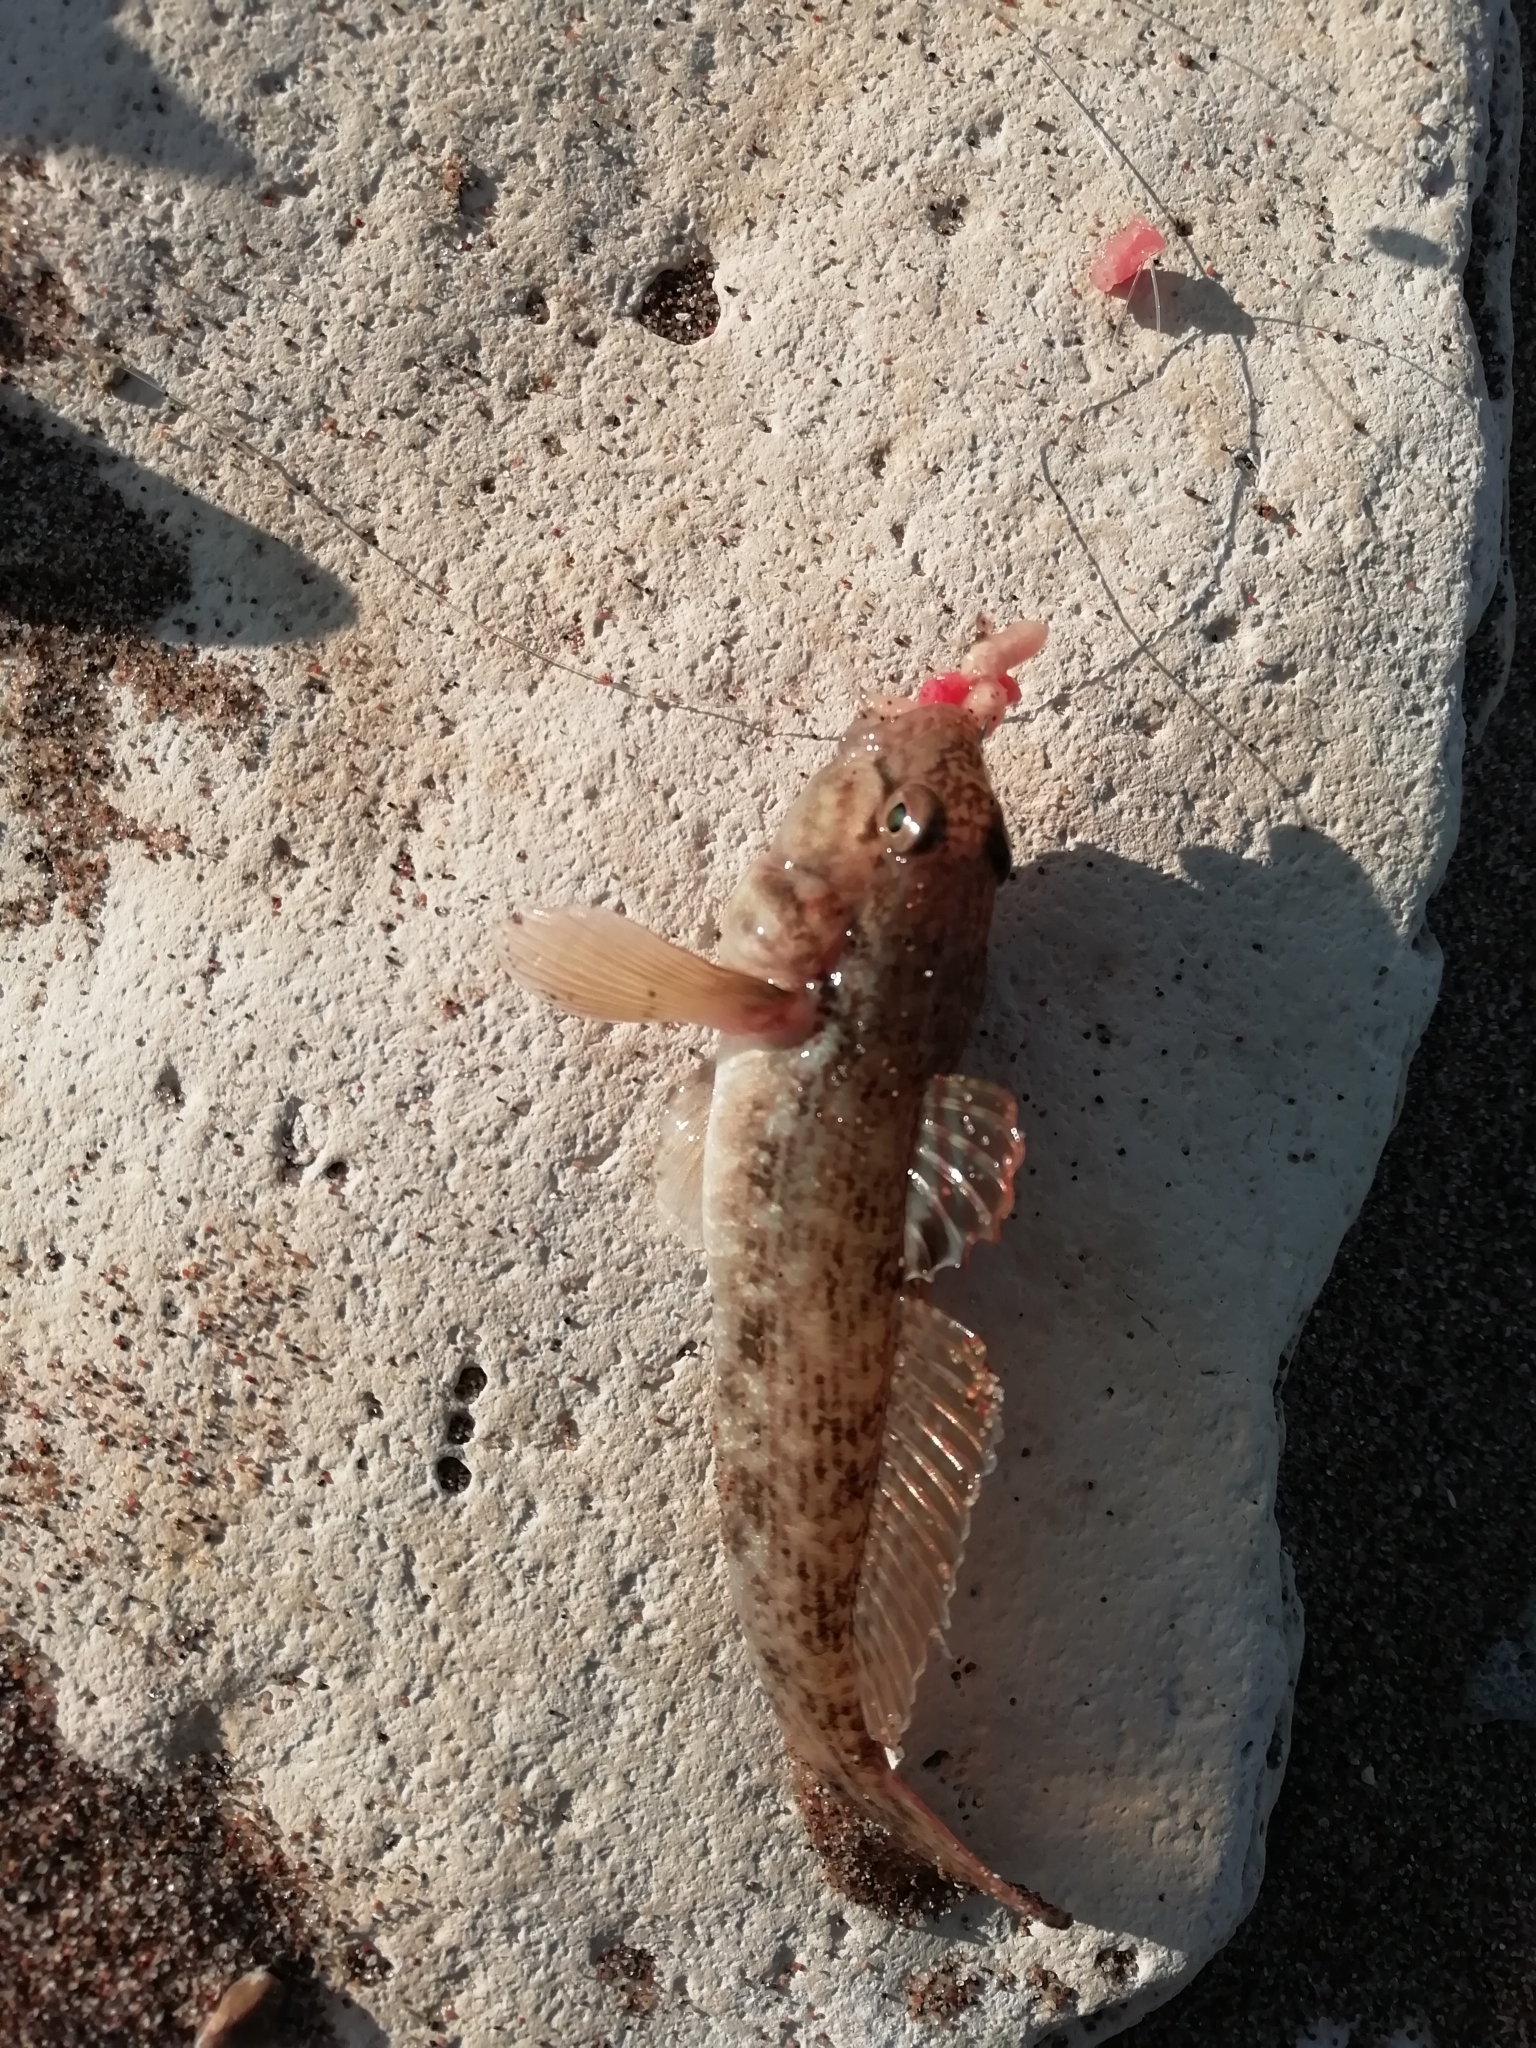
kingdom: Animalia
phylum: Chordata
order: Perciformes
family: Gobiidae
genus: Neogobius
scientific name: Neogobius melanostomus
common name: Round goby
